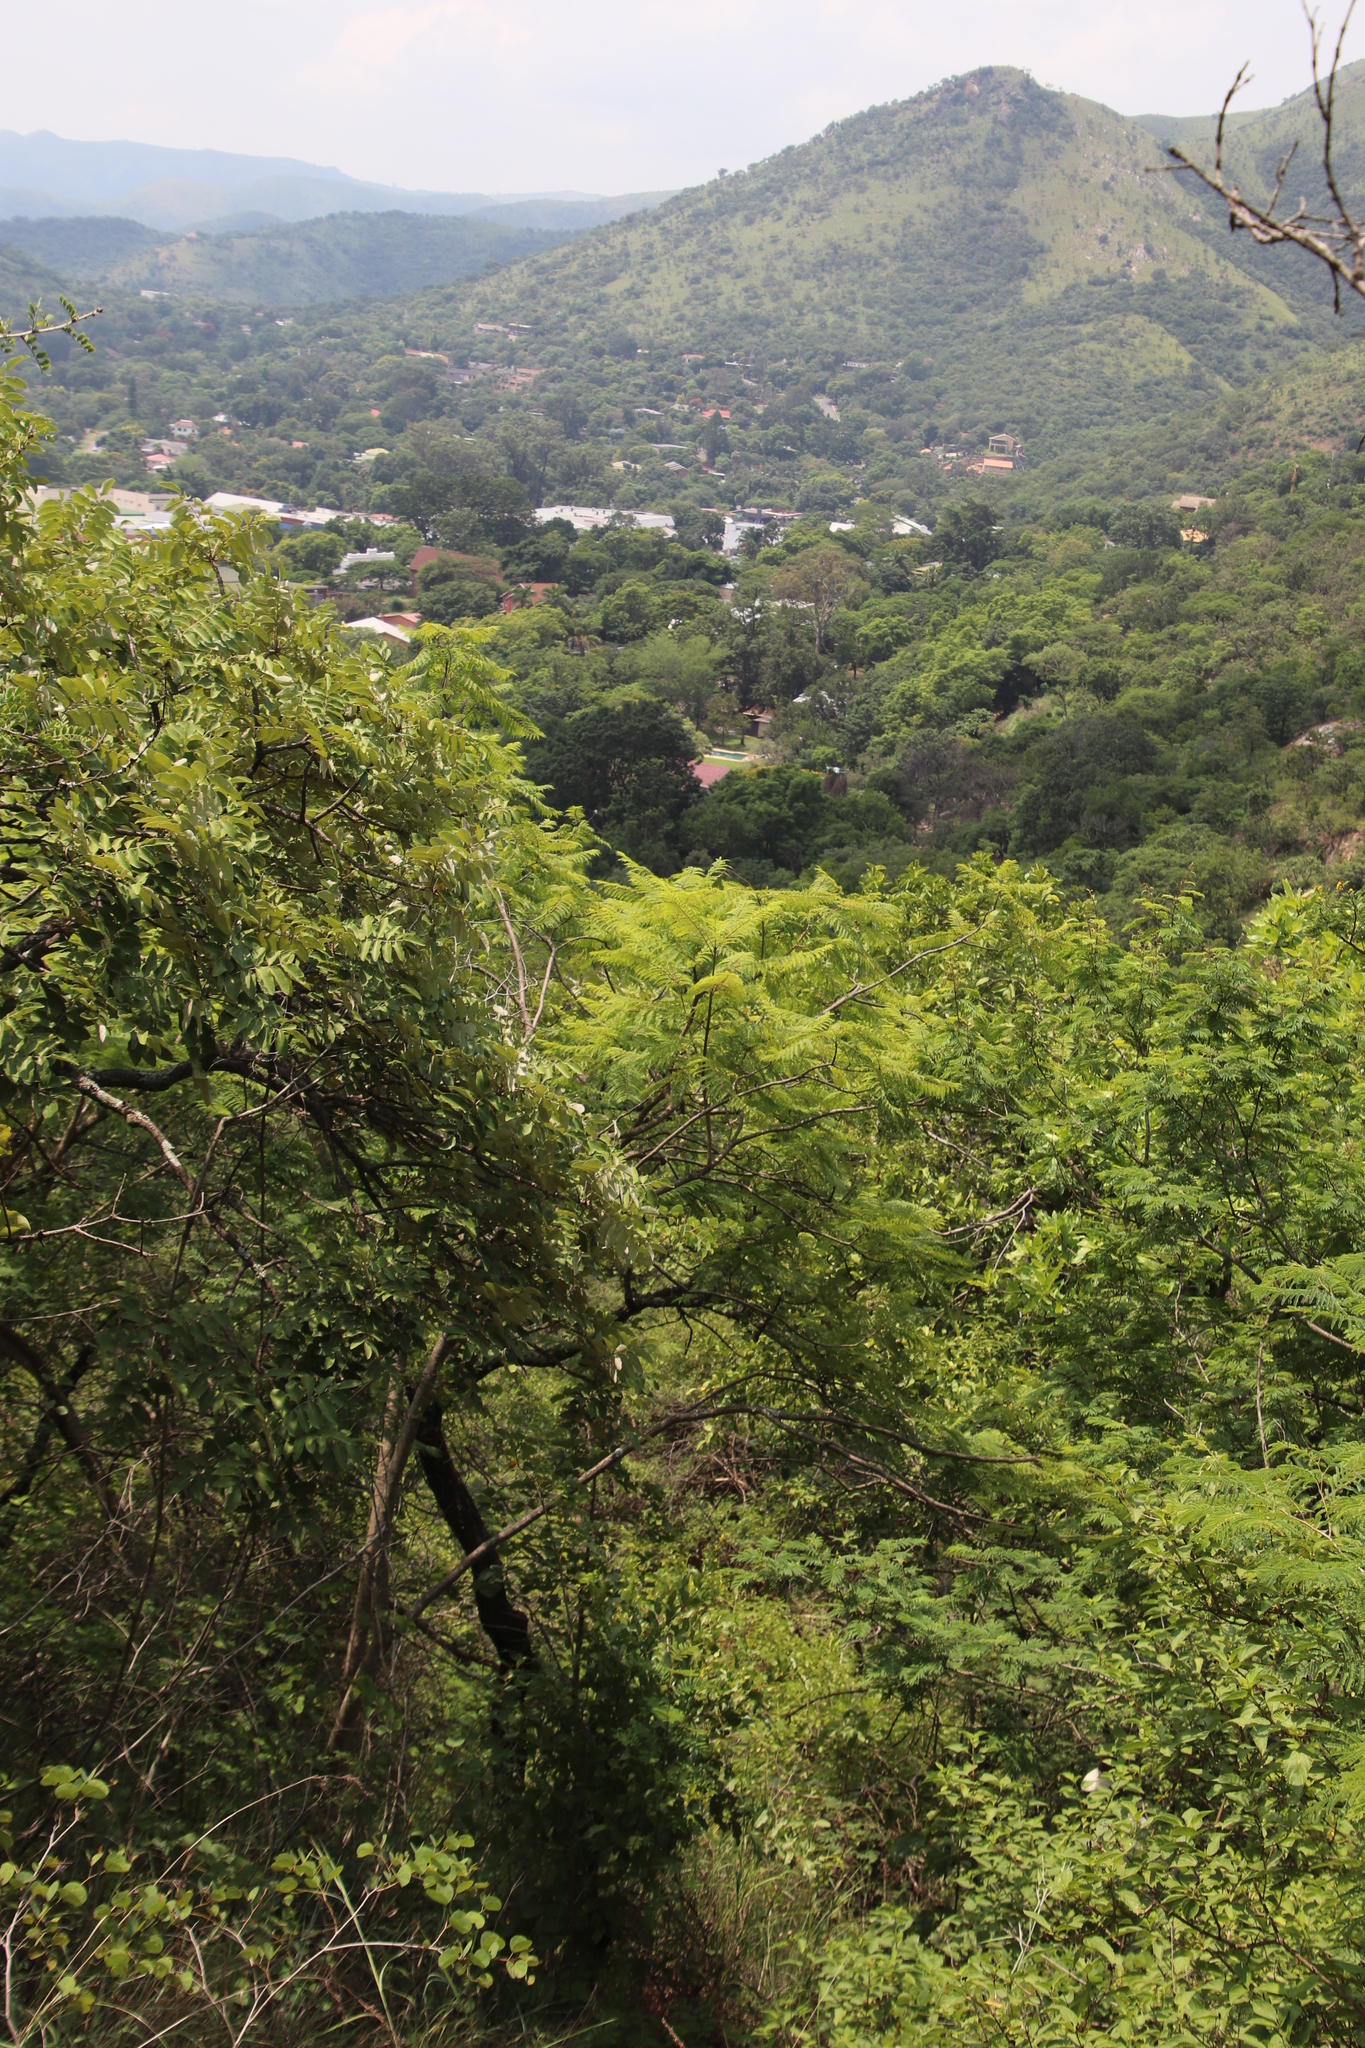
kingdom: Plantae
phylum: Tracheophyta
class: Magnoliopsida
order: Lamiales
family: Bignoniaceae
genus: Jacaranda
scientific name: Jacaranda mimosifolia
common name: Black poui
